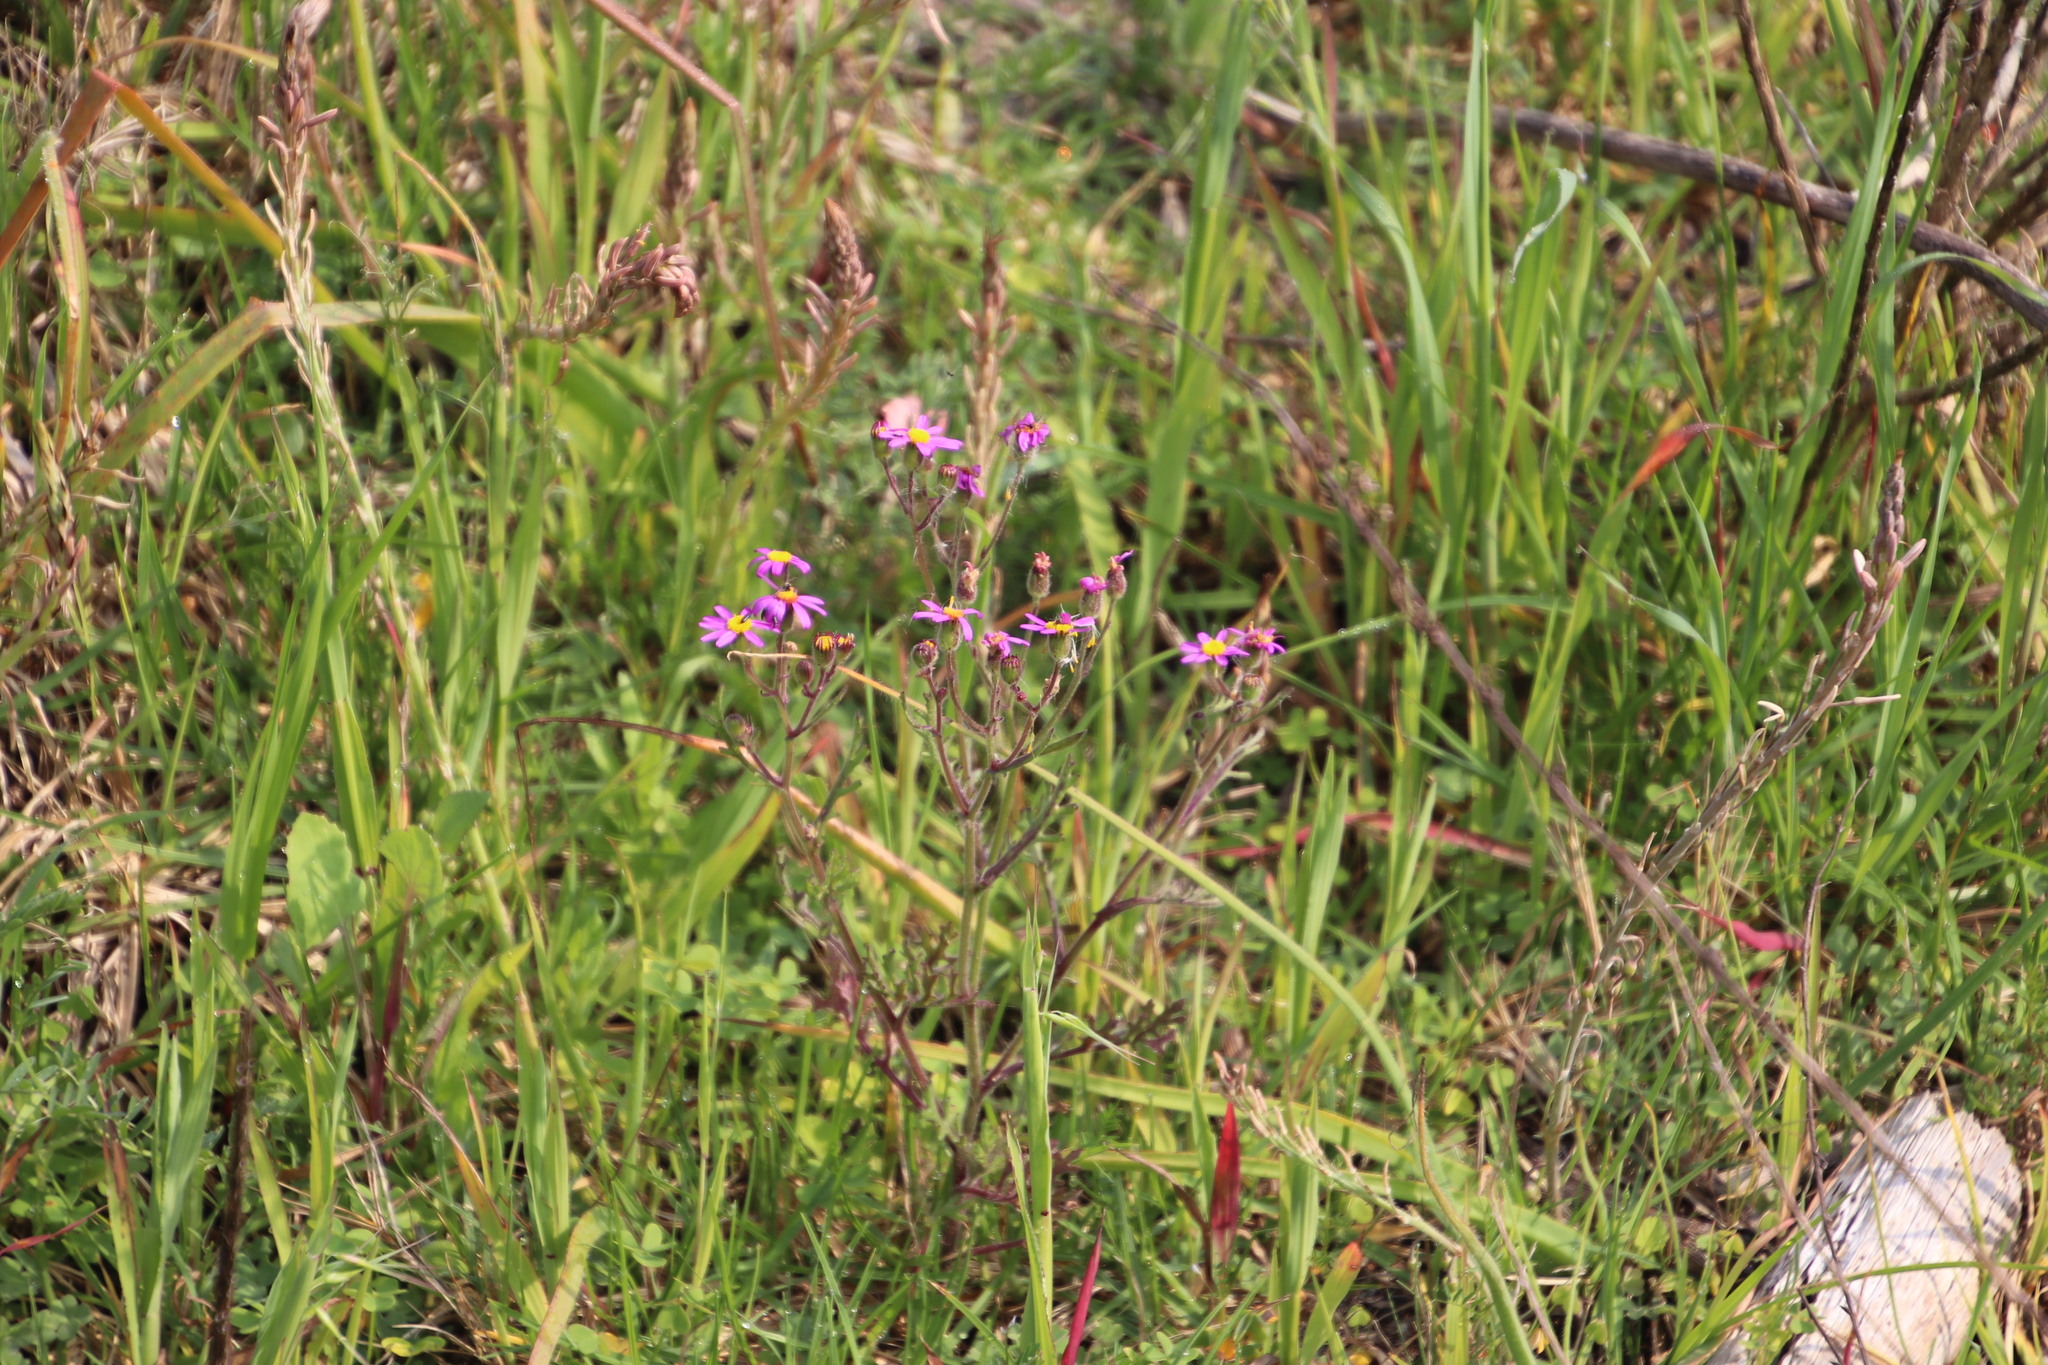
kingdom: Plantae
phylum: Tracheophyta
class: Magnoliopsida
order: Asterales
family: Asteraceae
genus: Senecio
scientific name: Senecio arenarius
